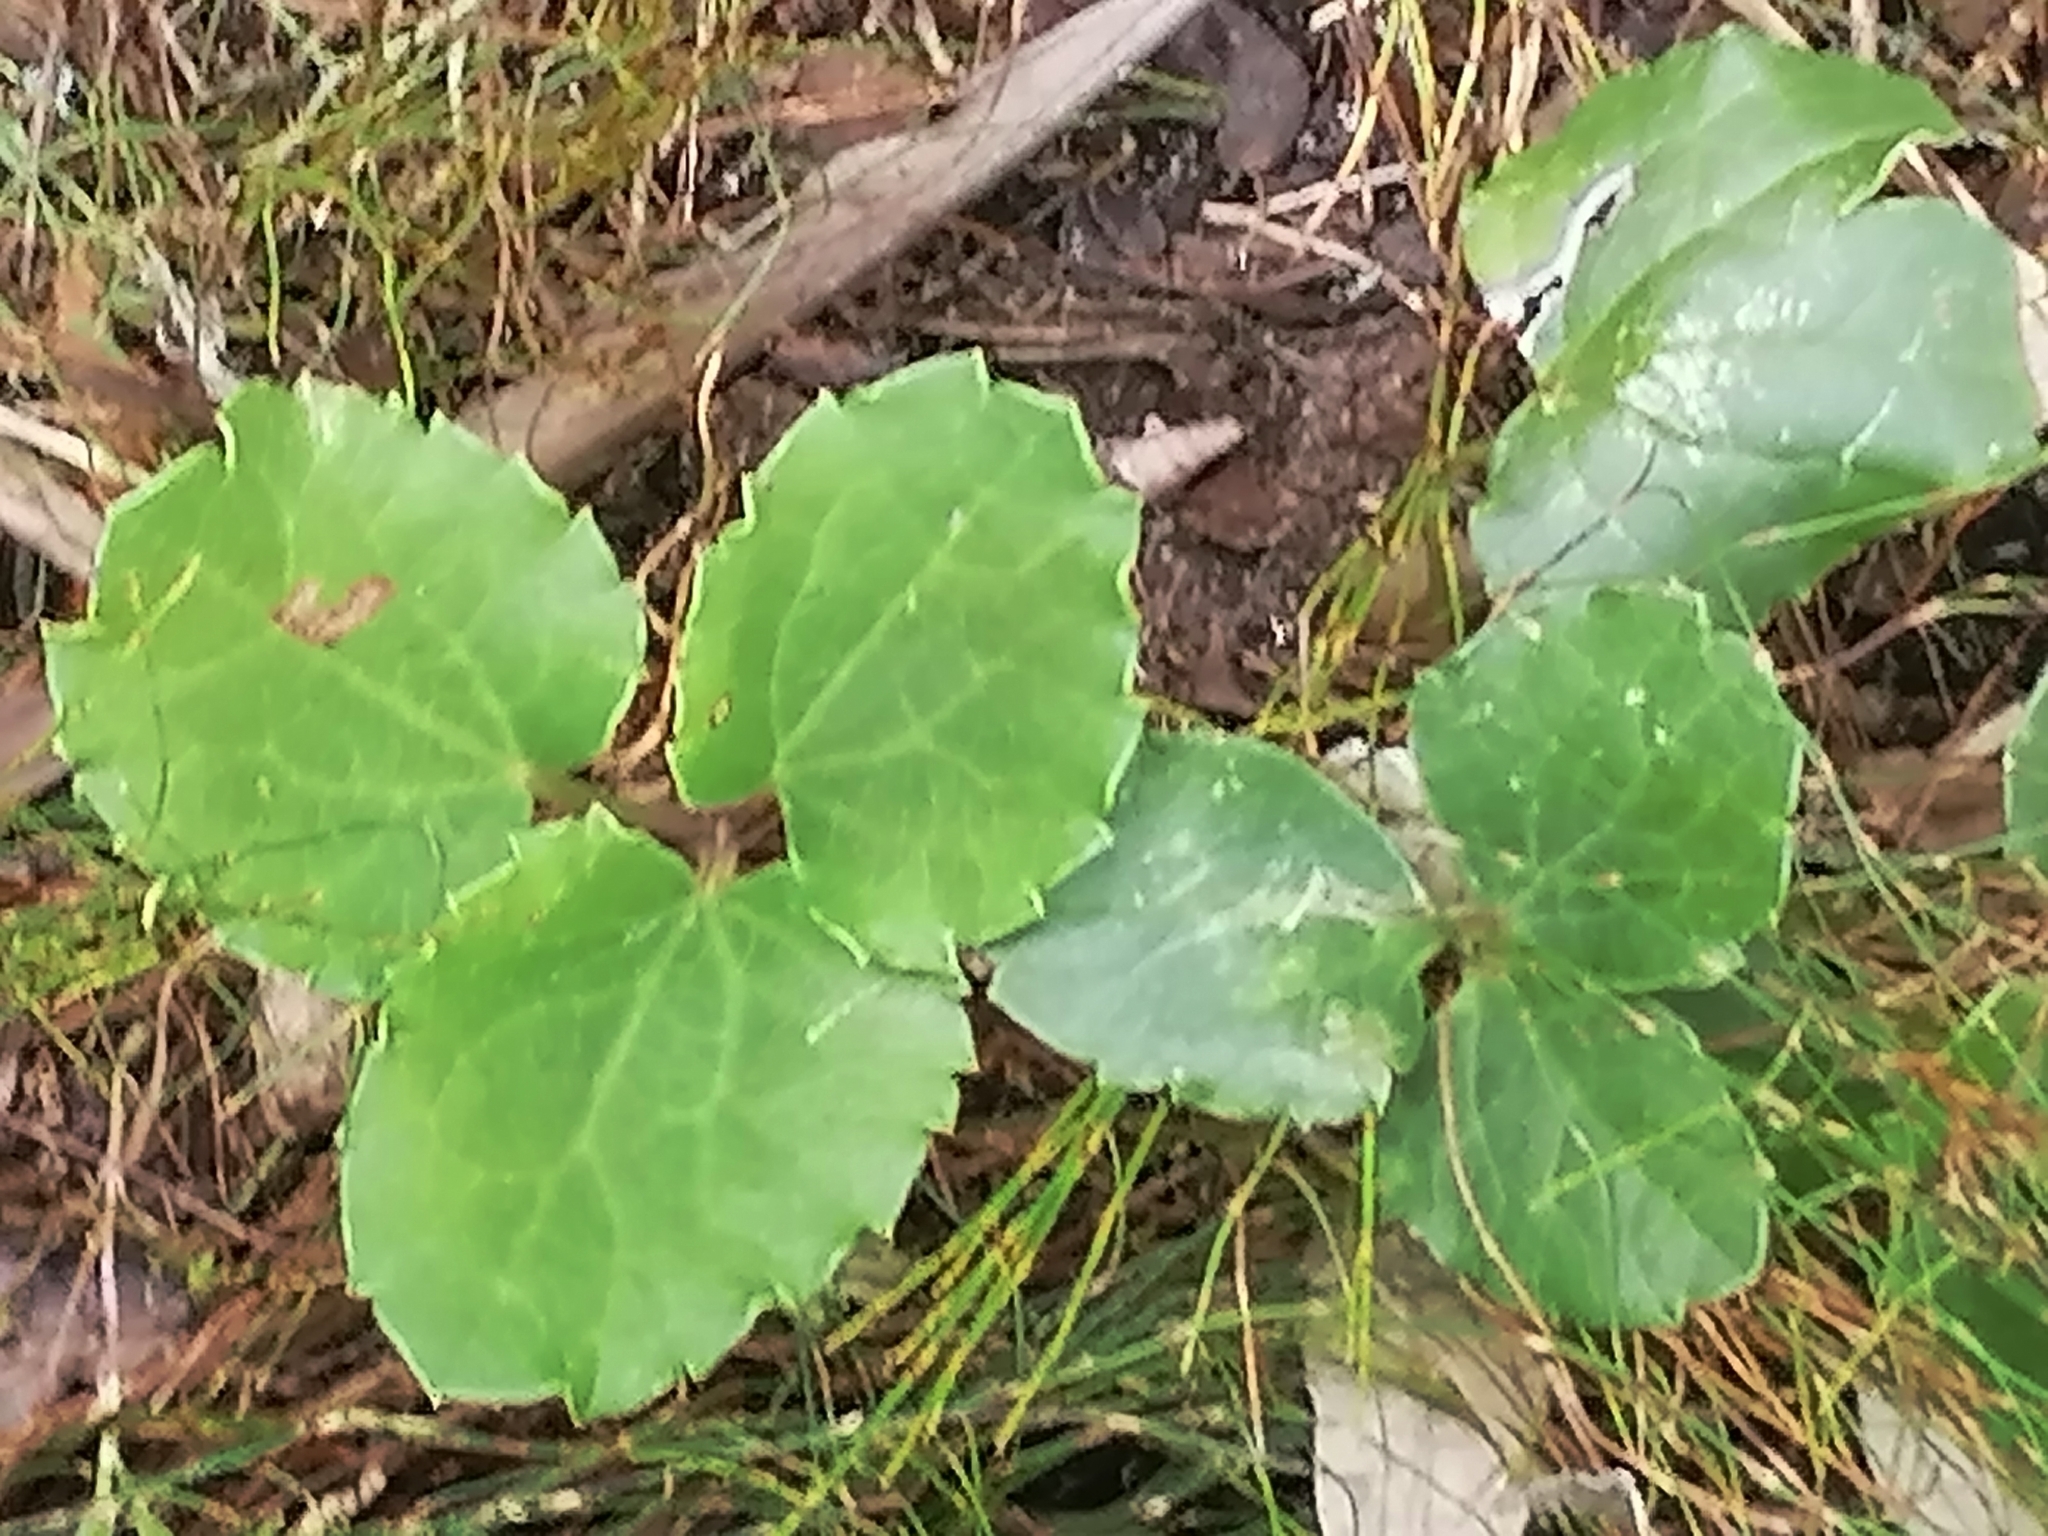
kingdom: Plantae
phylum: Tracheophyta
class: Magnoliopsida
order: Ranunculales
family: Ranunculaceae
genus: Knowltonia
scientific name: Knowltonia vesicatoria
